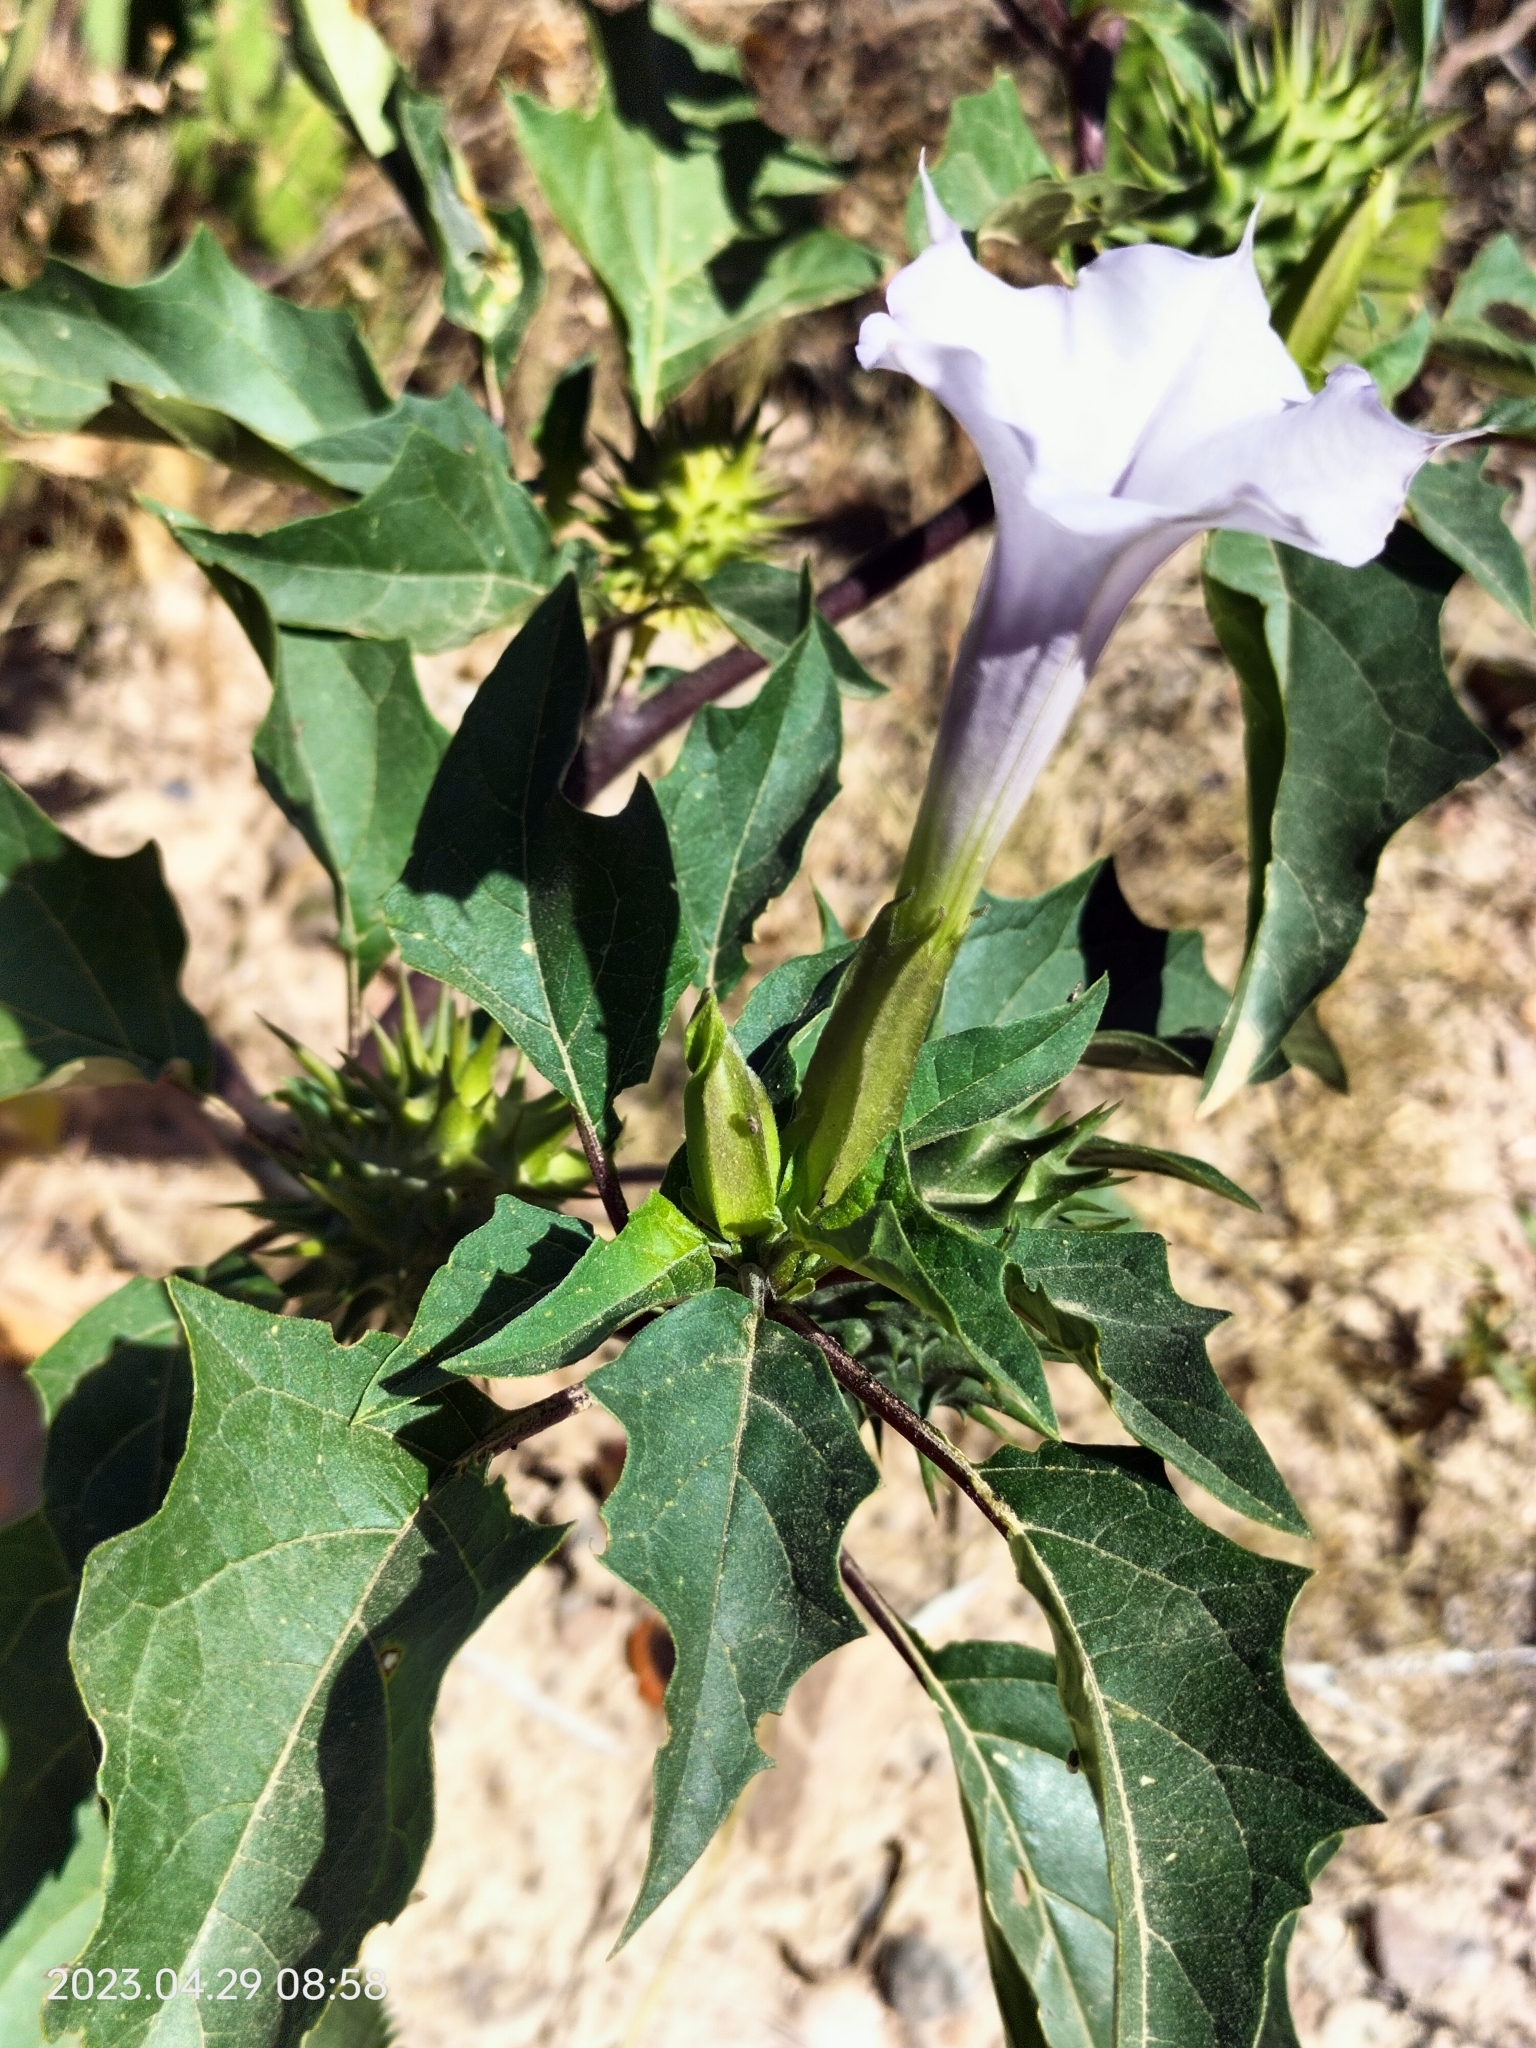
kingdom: Plantae
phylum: Tracheophyta
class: Magnoliopsida
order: Solanales
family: Solanaceae
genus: Datura
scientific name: Datura stramonium
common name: Thorn-apple
